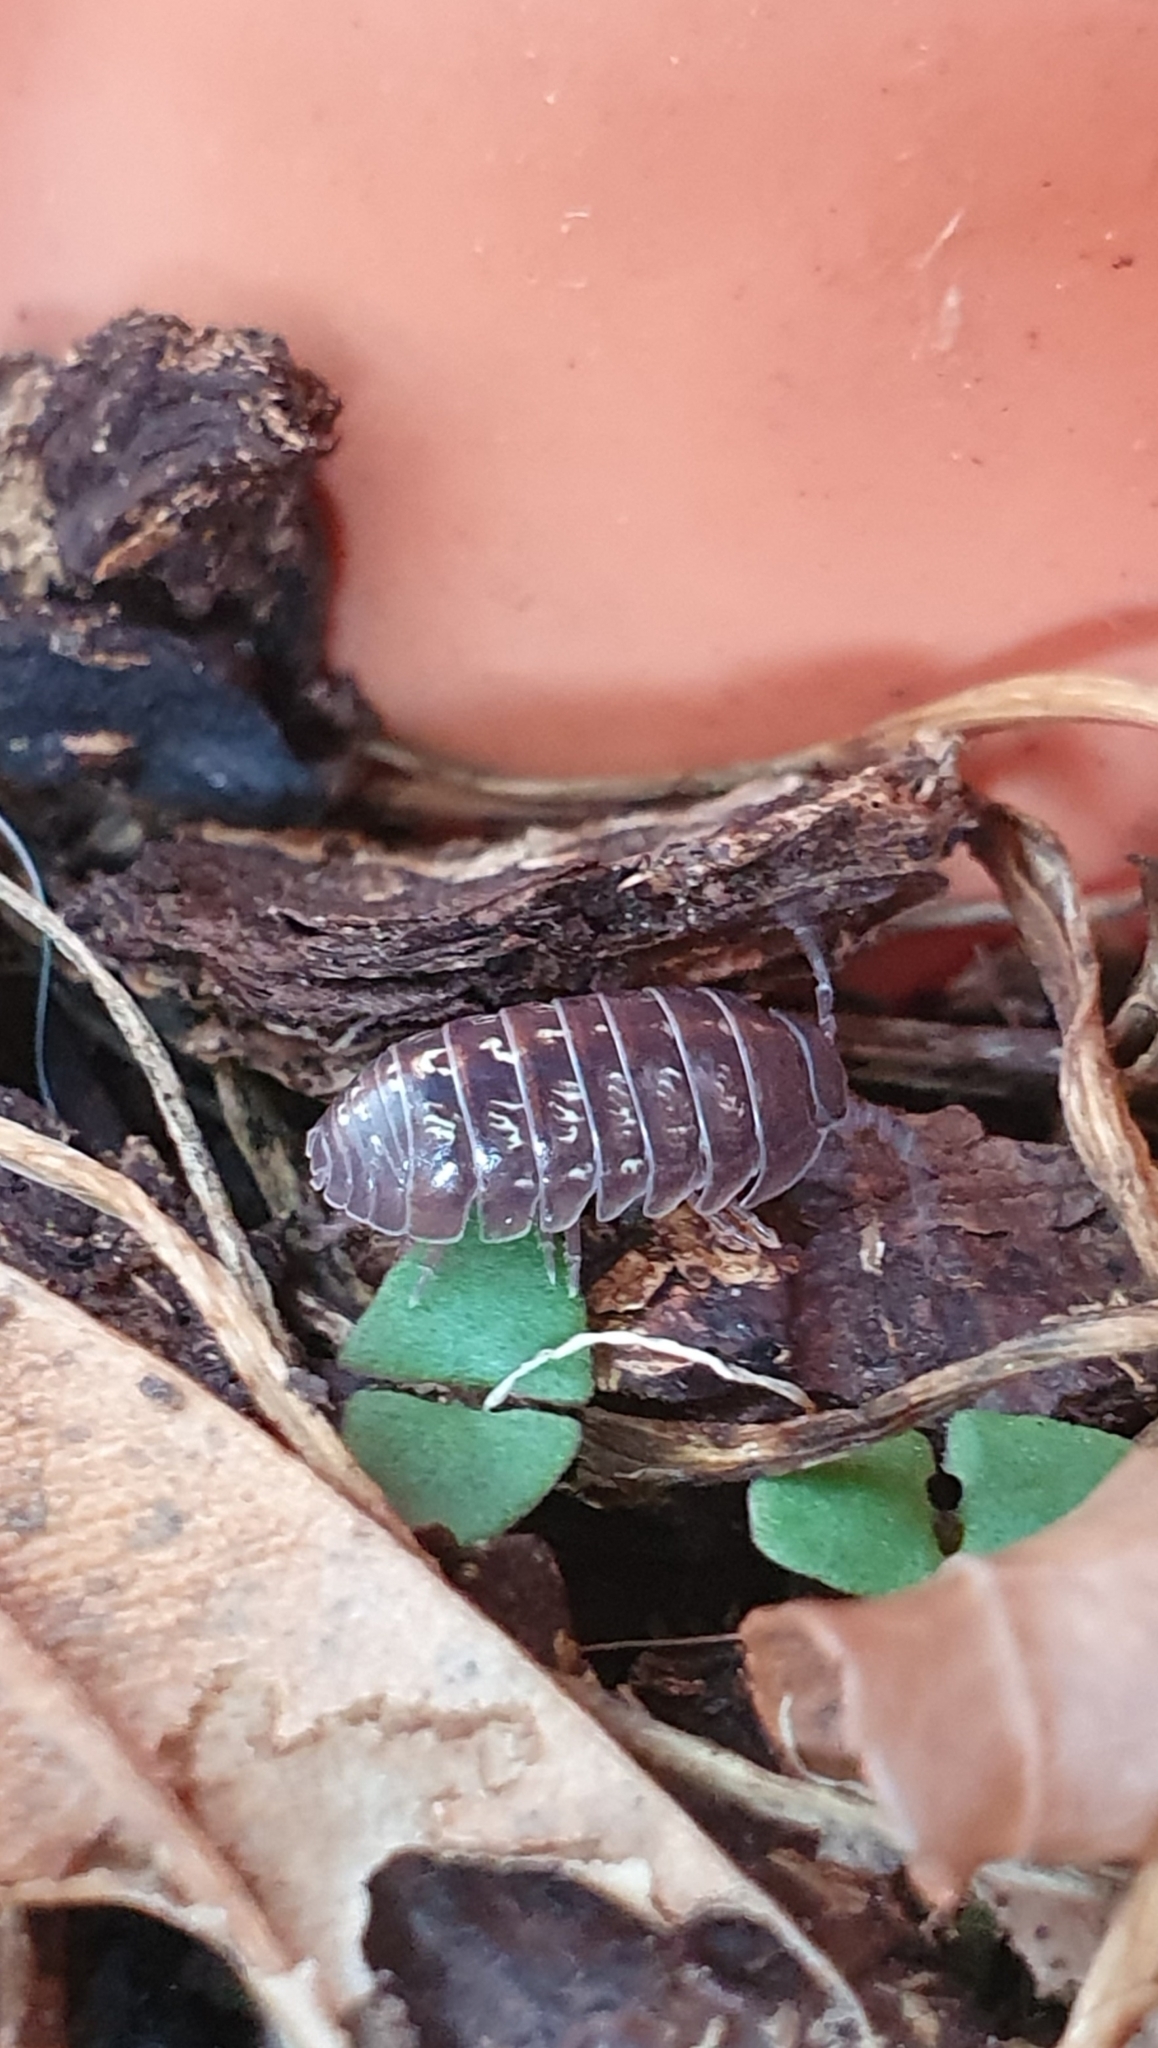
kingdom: Animalia
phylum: Arthropoda
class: Malacostraca
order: Isopoda
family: Armadillidiidae
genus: Armadillidium
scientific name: Armadillidium vulgare
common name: Common pill woodlouse
